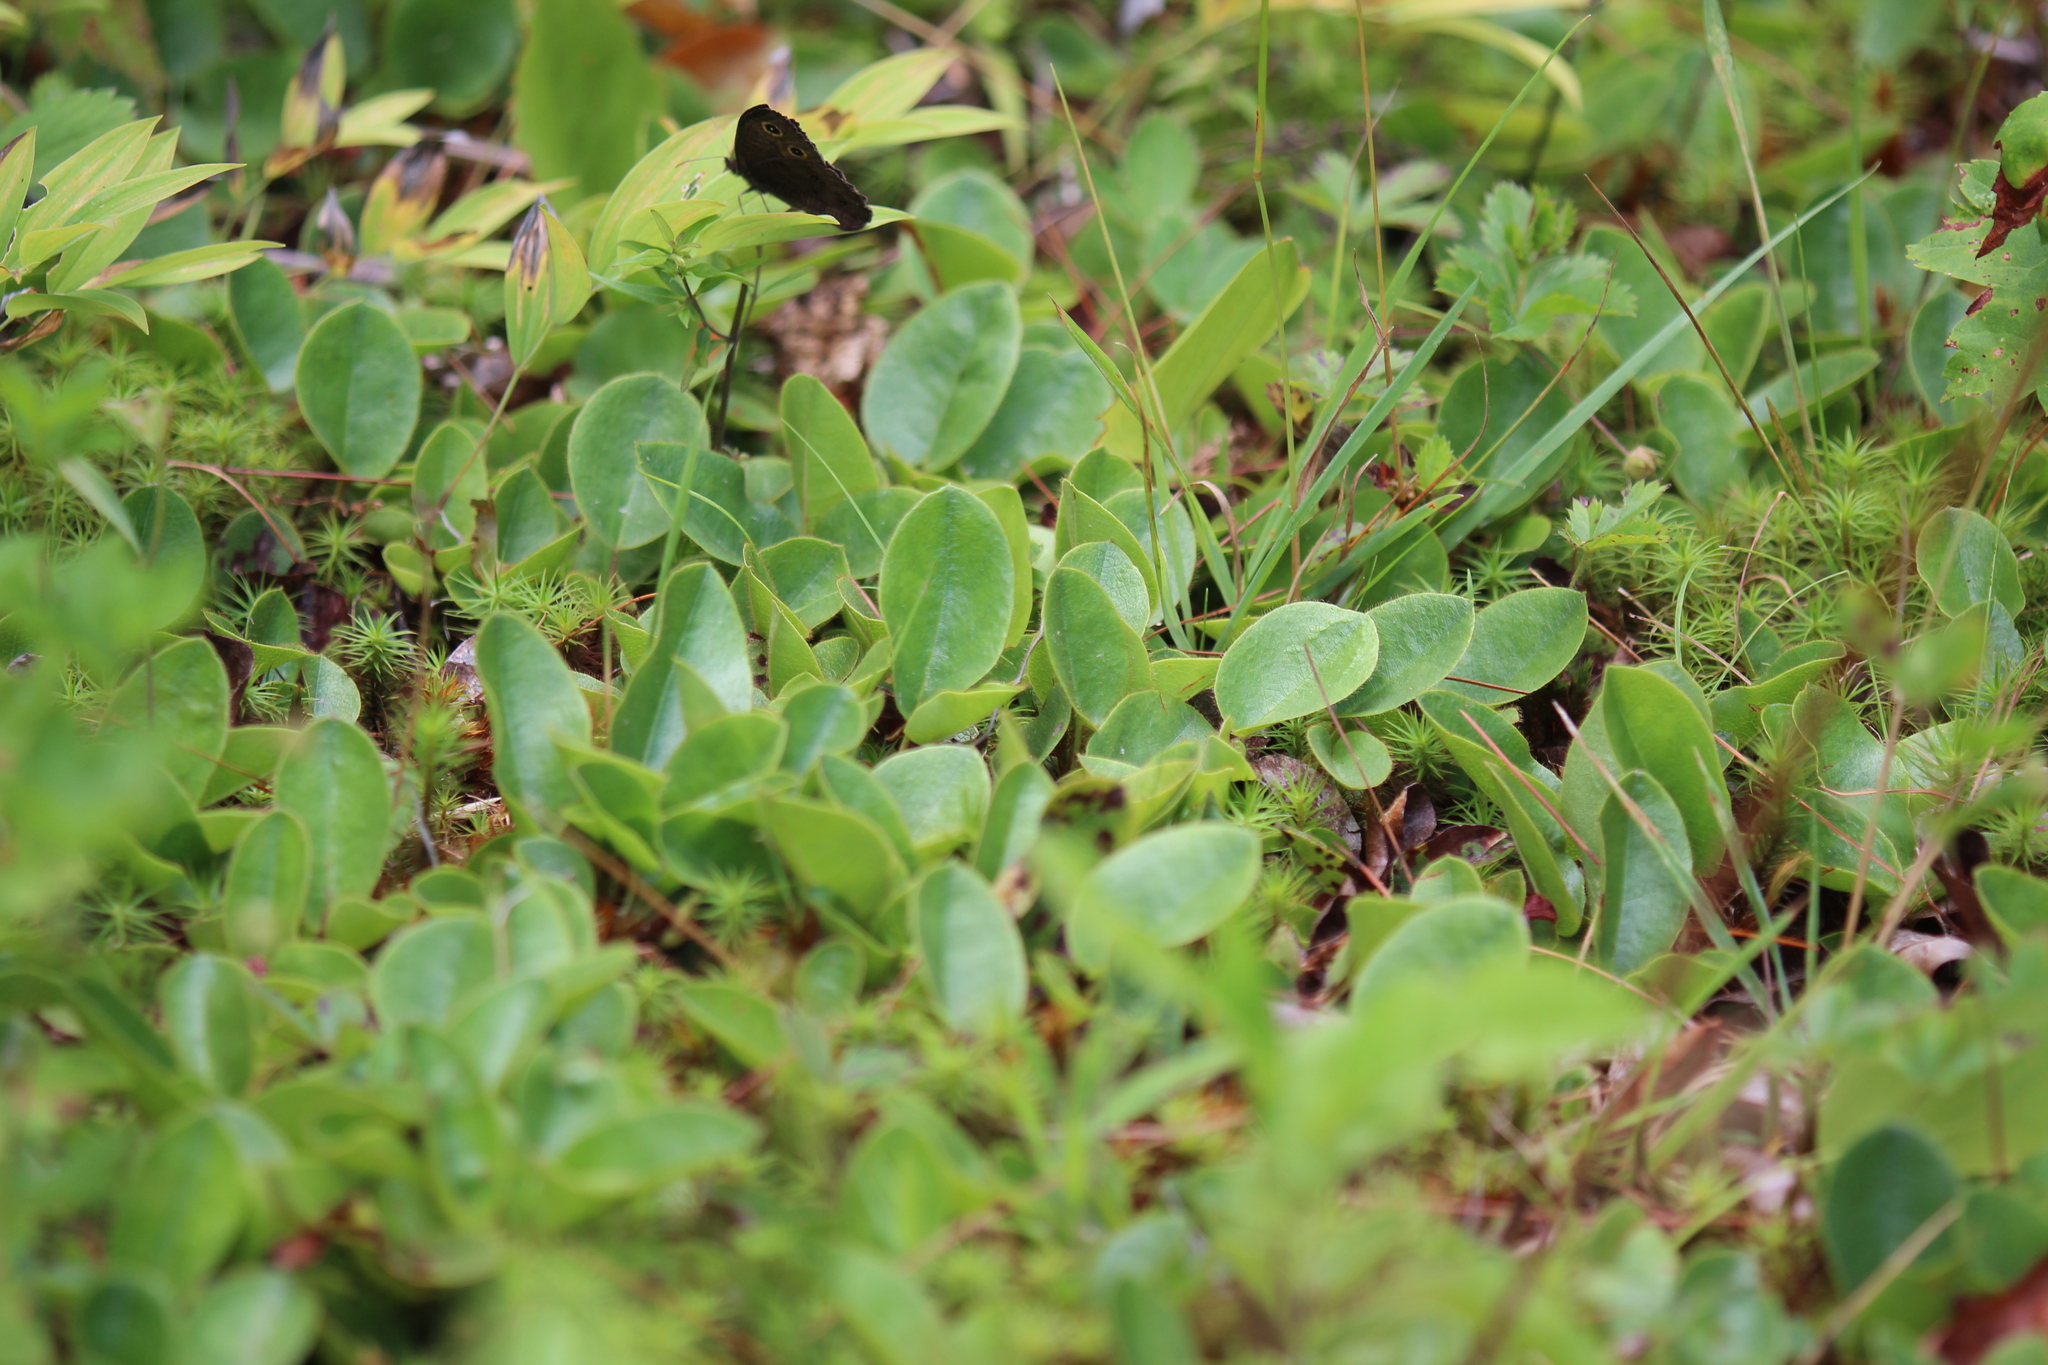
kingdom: Plantae
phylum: Tracheophyta
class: Magnoliopsida
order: Ericales
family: Ericaceae
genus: Epigaea
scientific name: Epigaea repens
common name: Gravelroot
